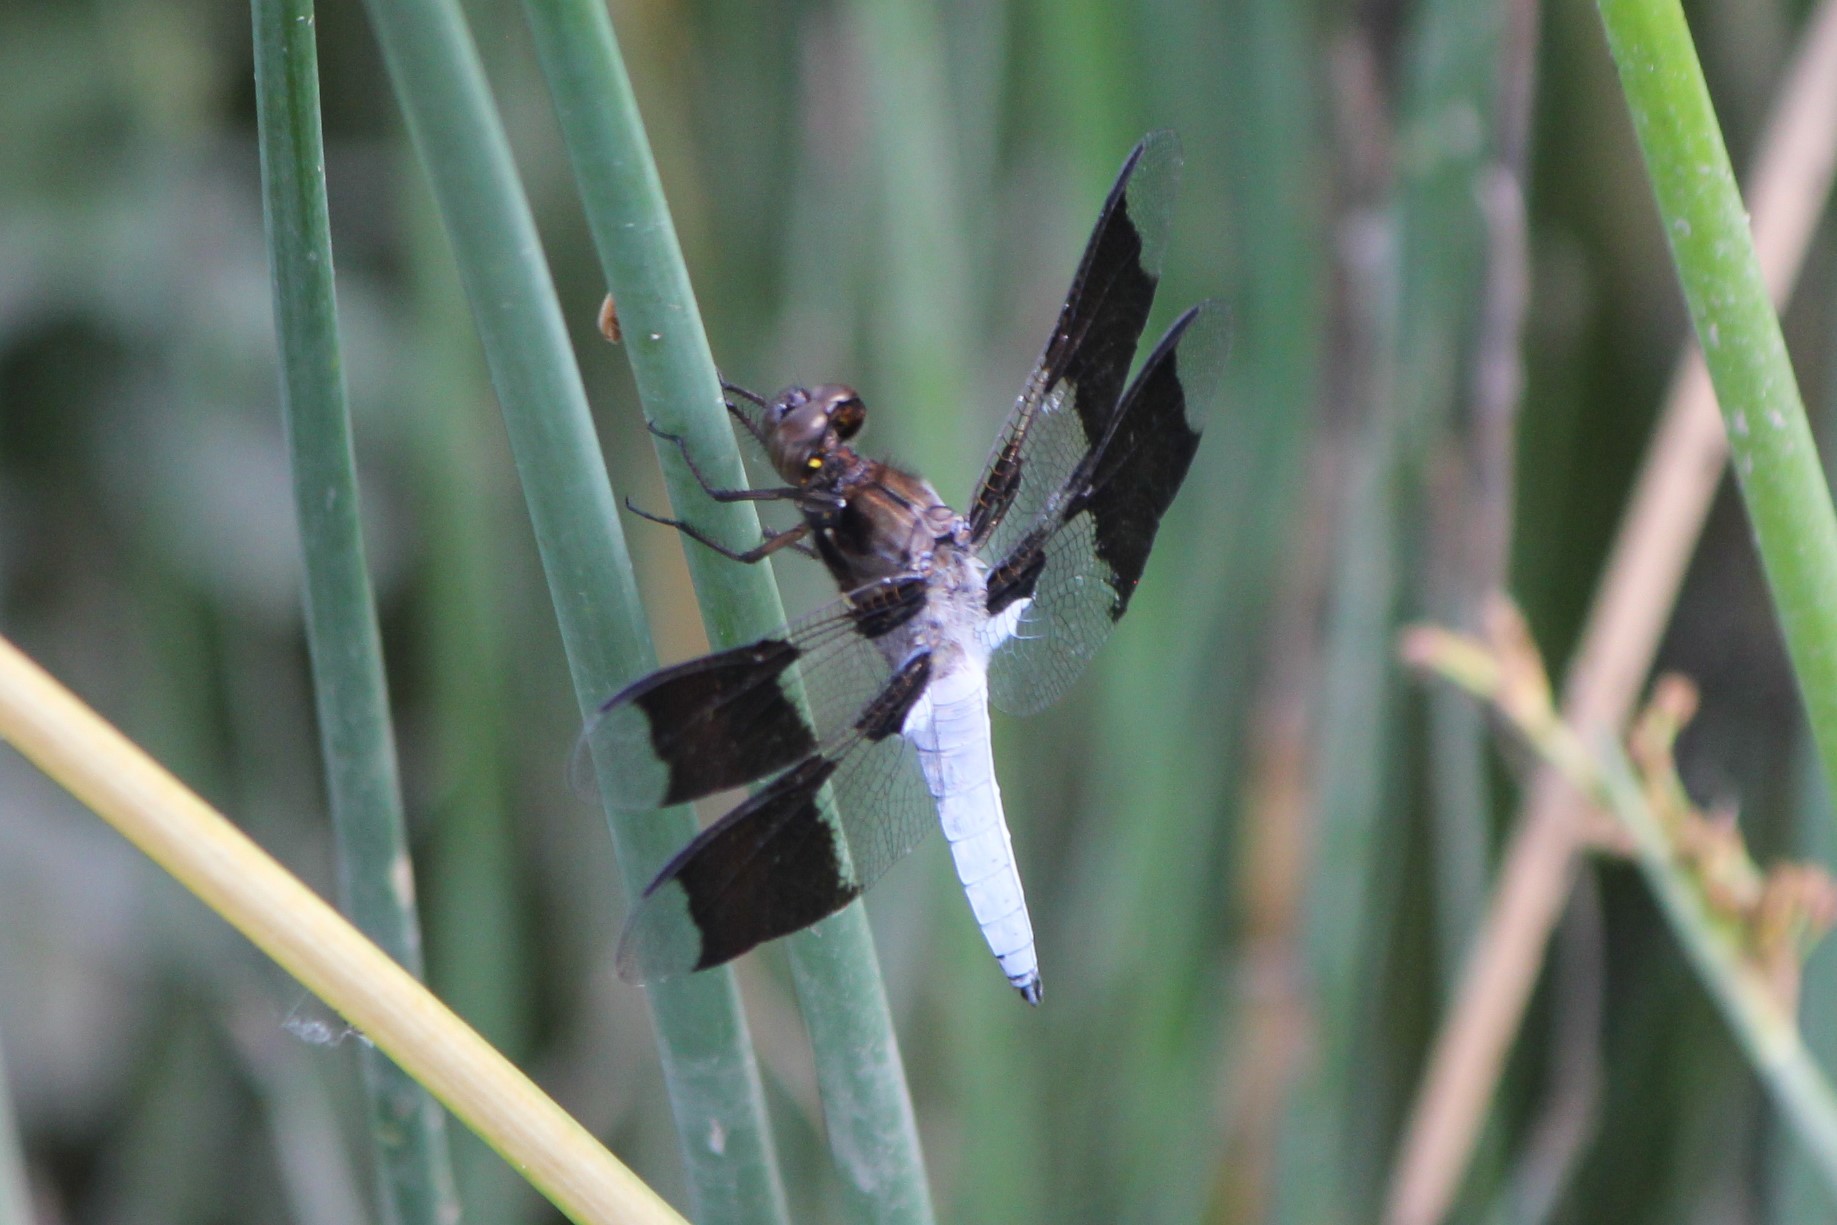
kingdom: Animalia
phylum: Arthropoda
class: Insecta
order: Odonata
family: Libellulidae
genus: Plathemis
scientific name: Plathemis lydia
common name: Common whitetail
